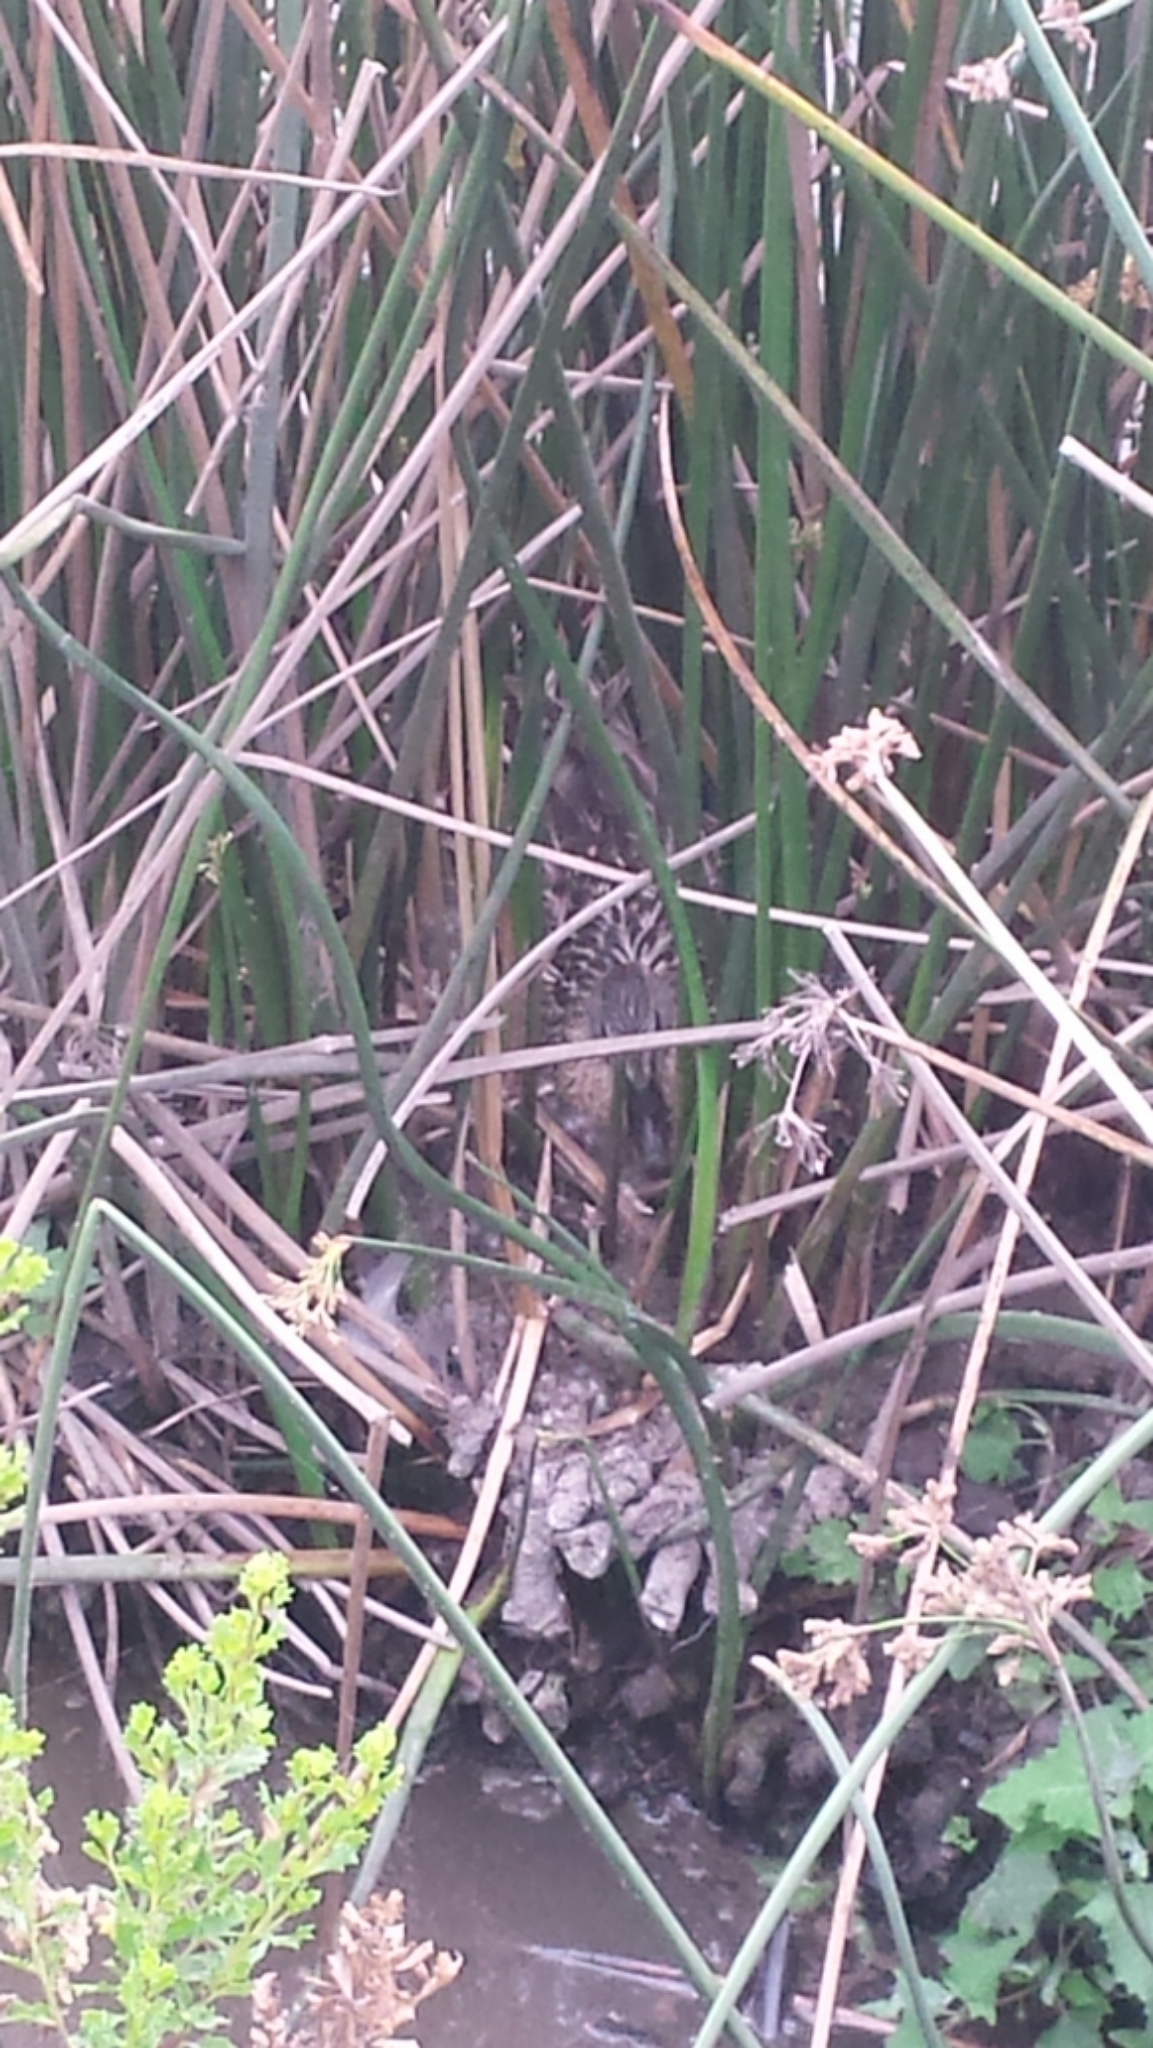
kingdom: Animalia
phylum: Chordata
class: Aves
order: Anseriformes
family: Anatidae
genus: Anas
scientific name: Anas platyrhynchos
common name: Mallard
